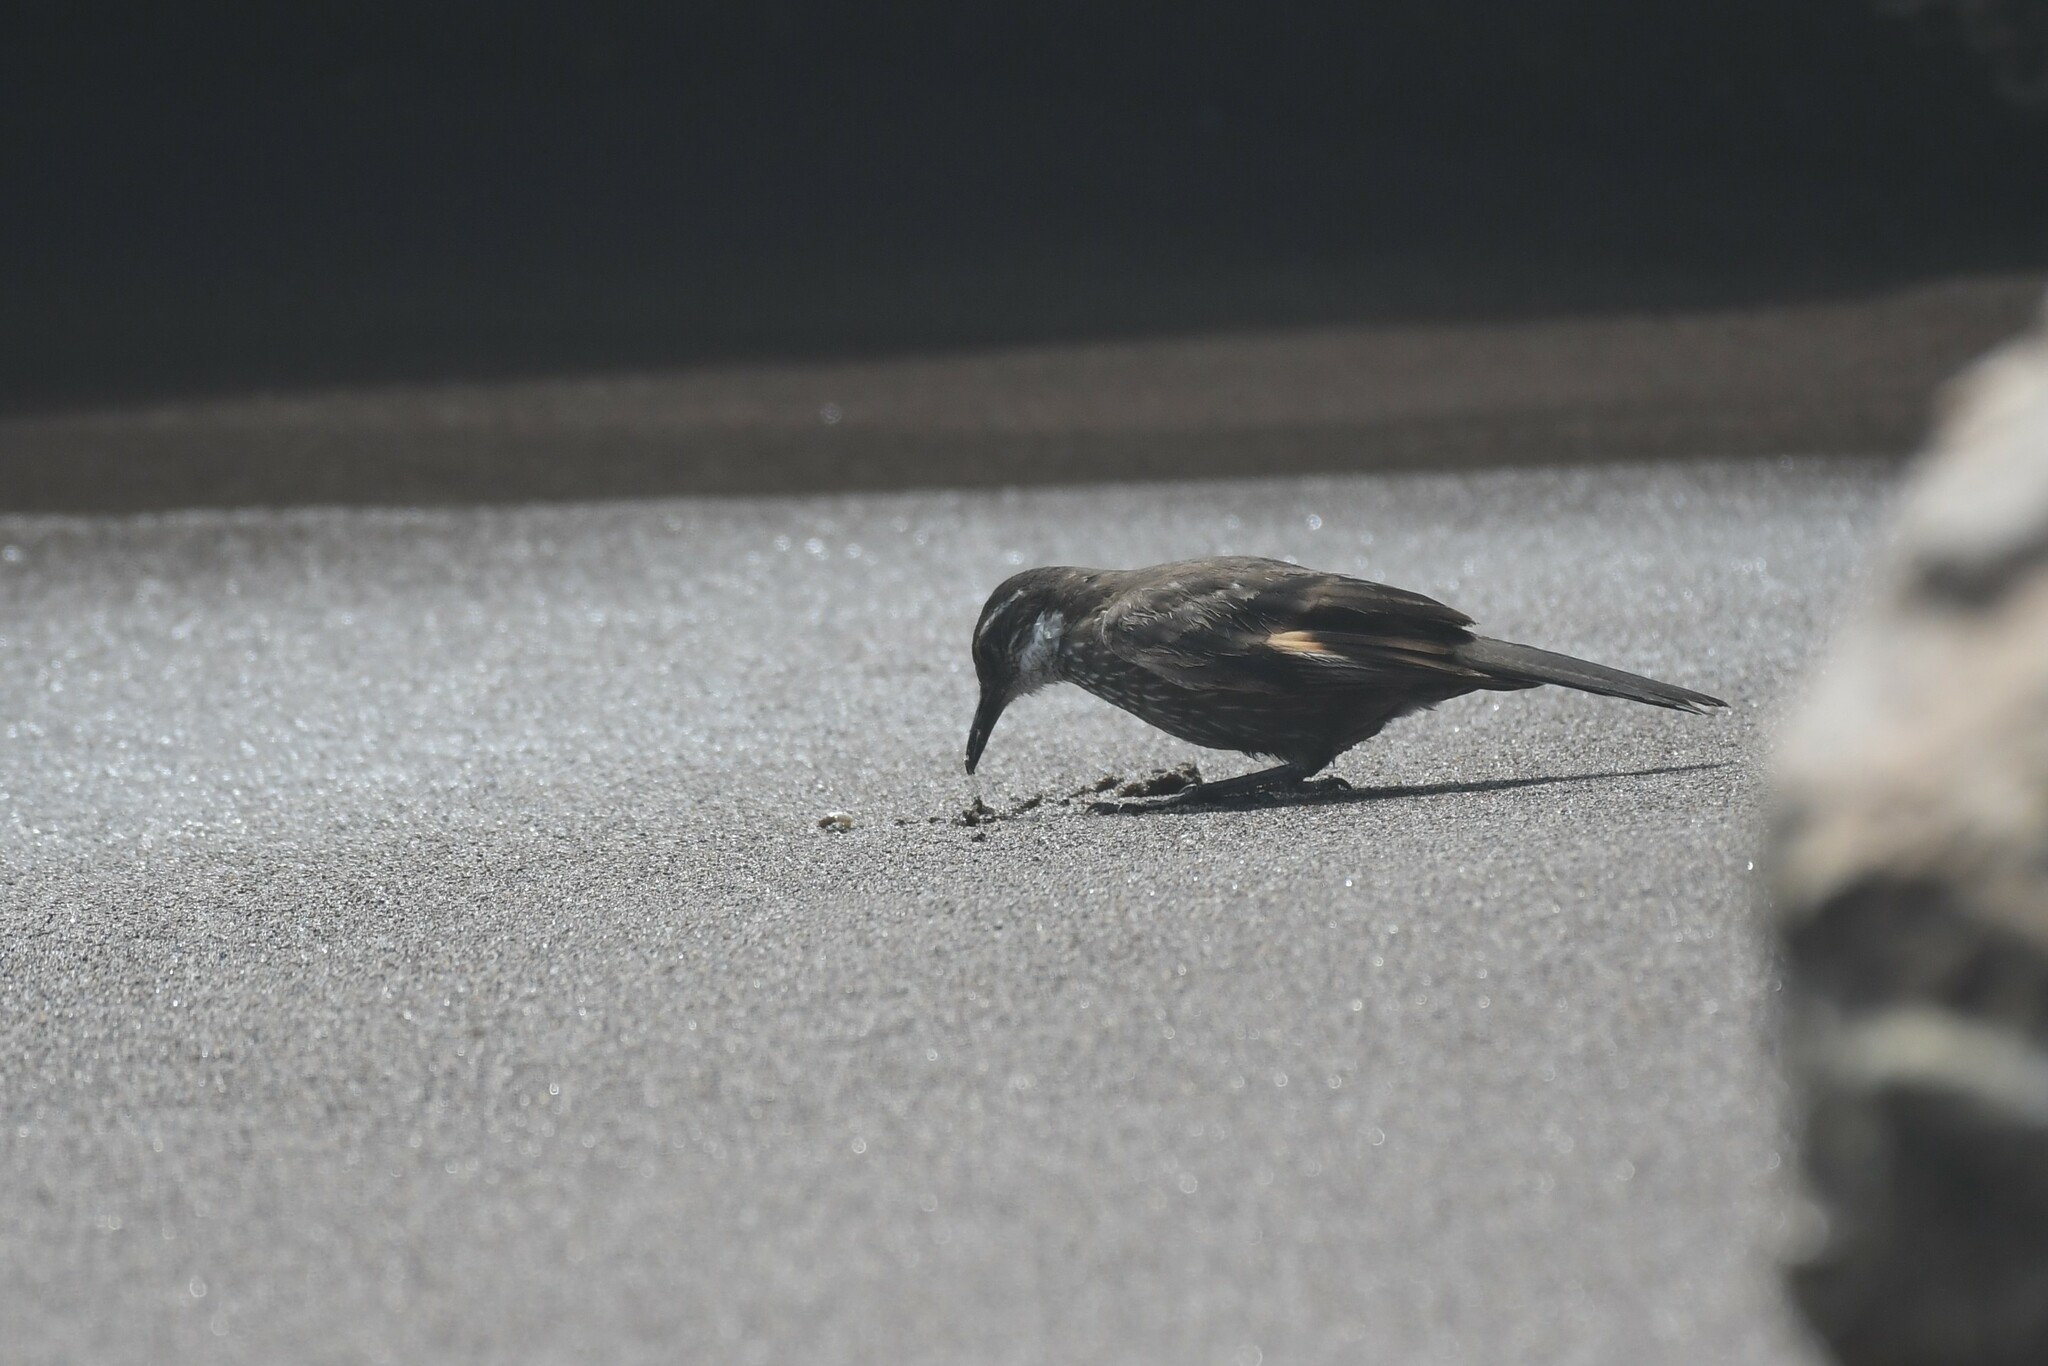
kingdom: Animalia
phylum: Chordata
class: Aves
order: Passeriformes
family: Furnariidae
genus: Cinclodes
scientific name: Cinclodes nigrofumosus
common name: Chilean seaside cinclodes
